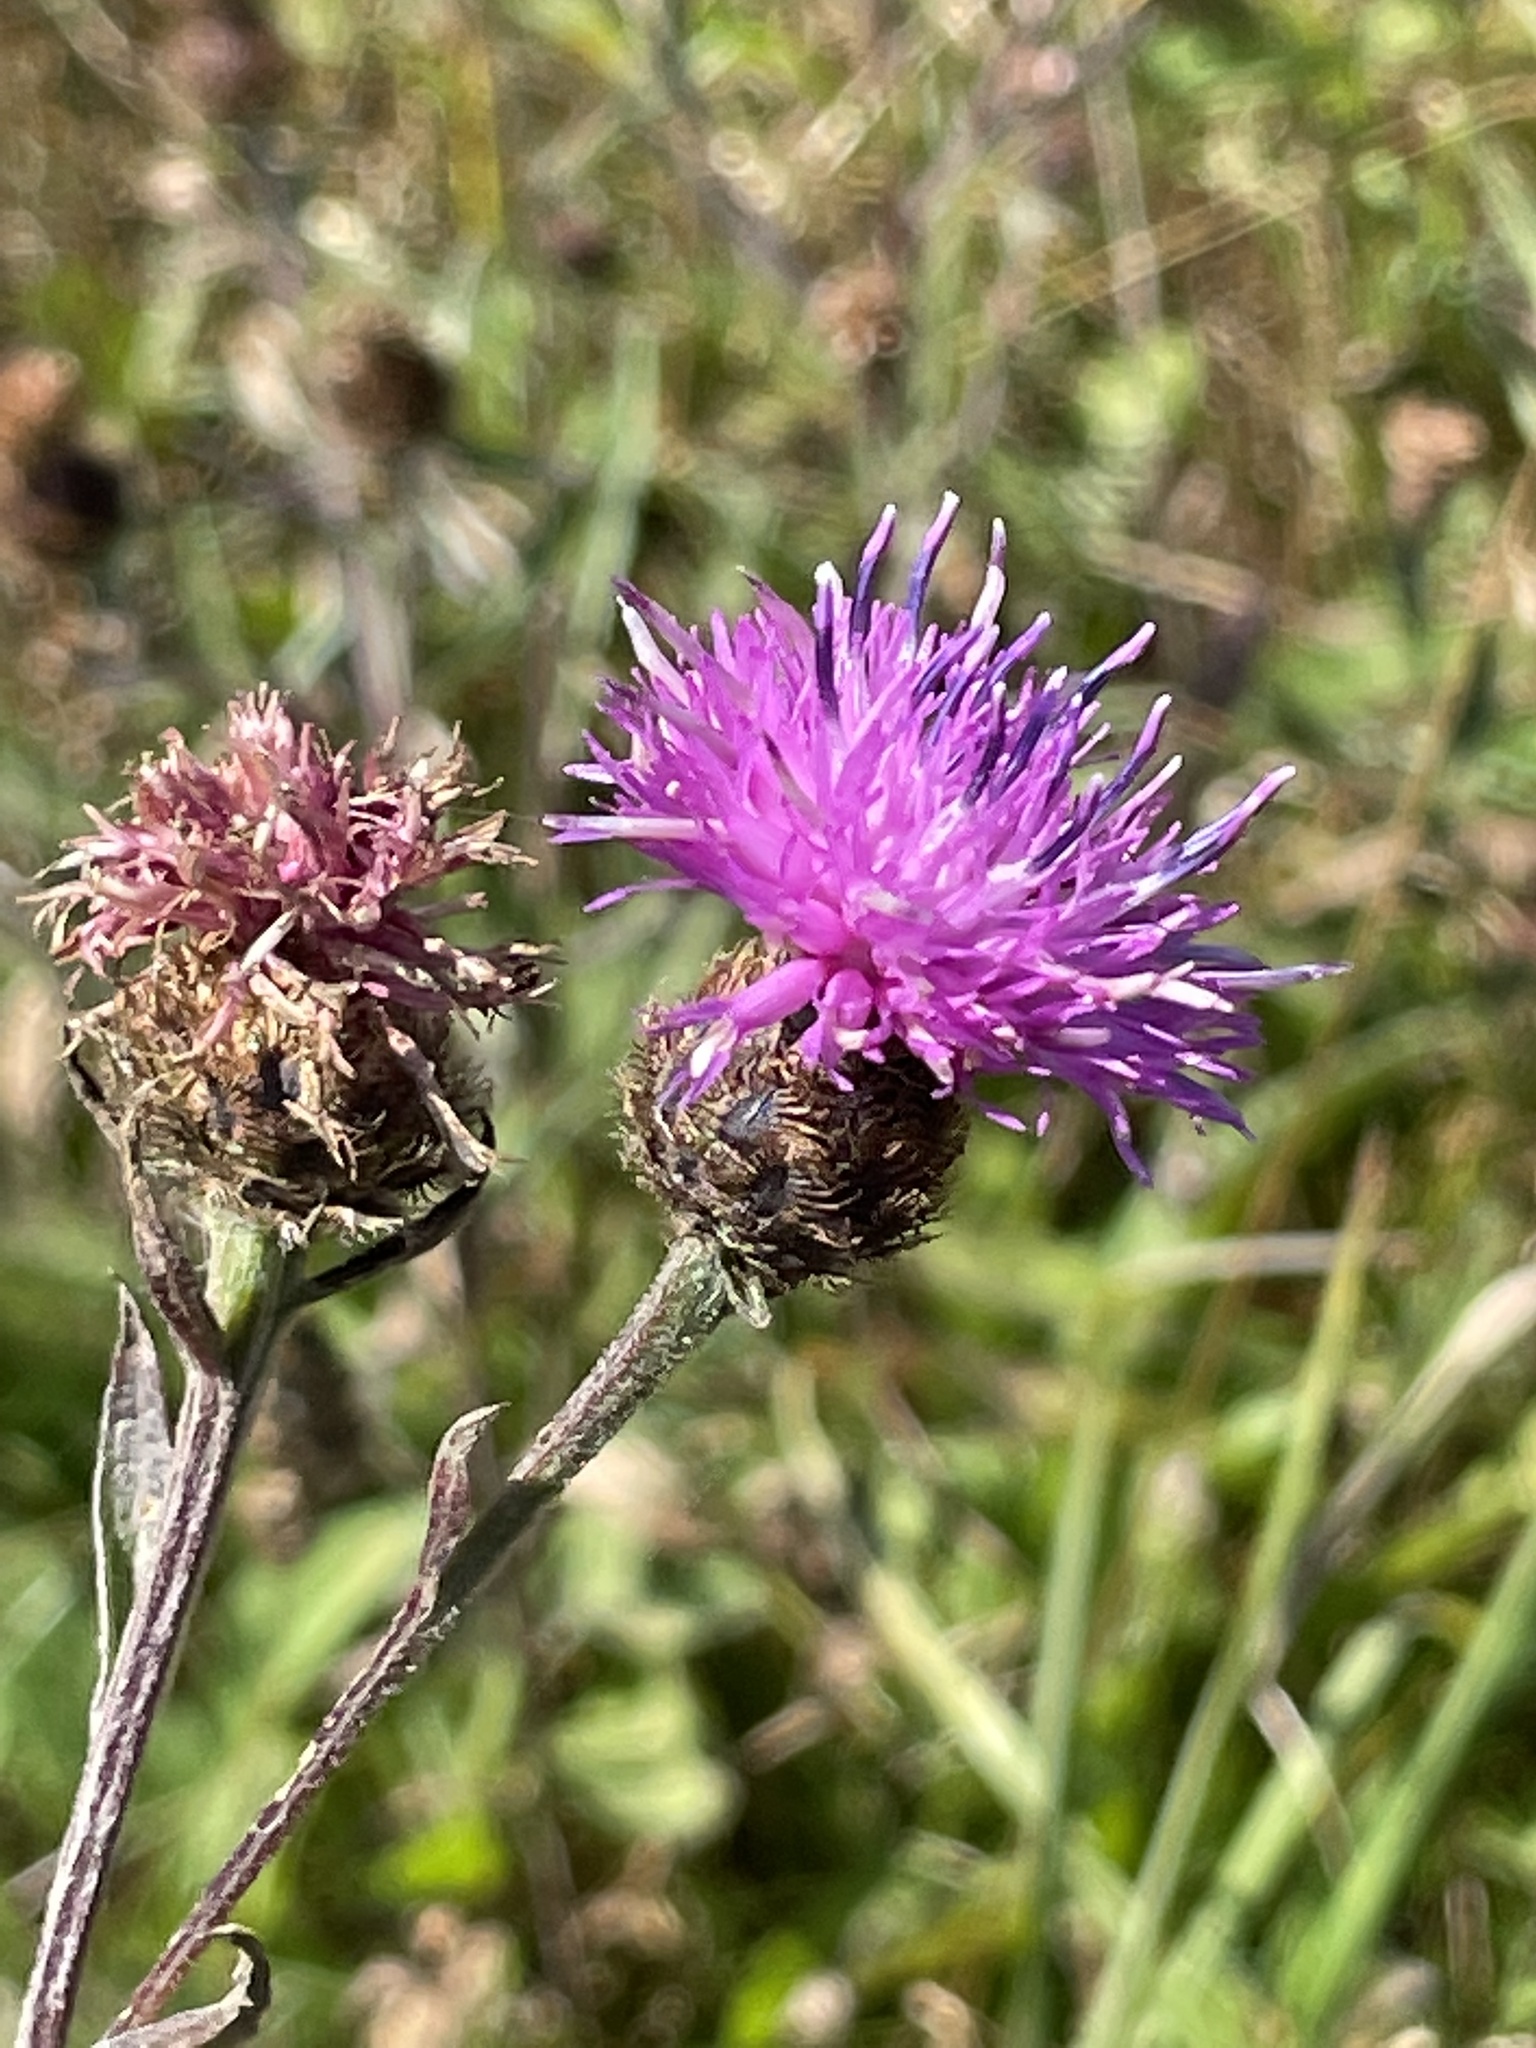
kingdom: Plantae
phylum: Tracheophyta
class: Magnoliopsida
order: Asterales
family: Asteraceae
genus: Centaurea
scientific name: Centaurea nigra
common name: Lesser knapweed
